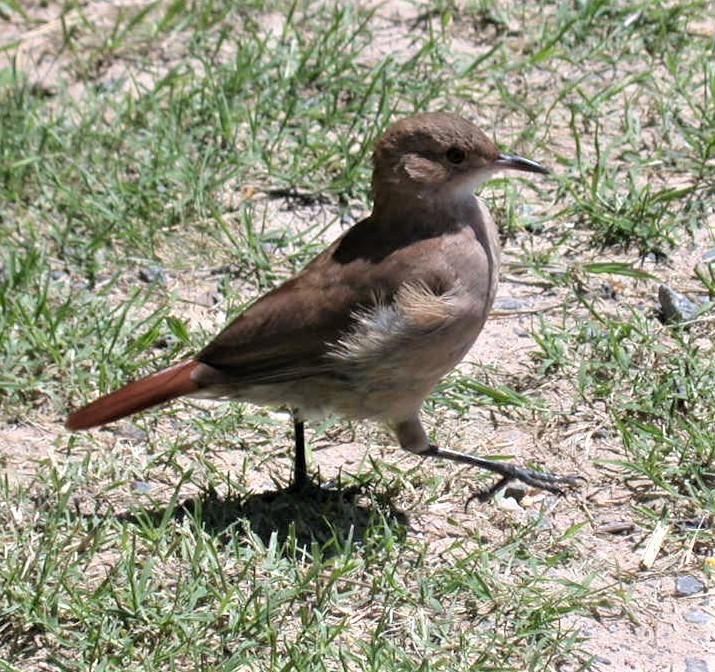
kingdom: Animalia
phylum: Chordata
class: Aves
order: Passeriformes
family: Furnariidae
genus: Furnarius
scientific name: Furnarius rufus
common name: Rufous hornero
